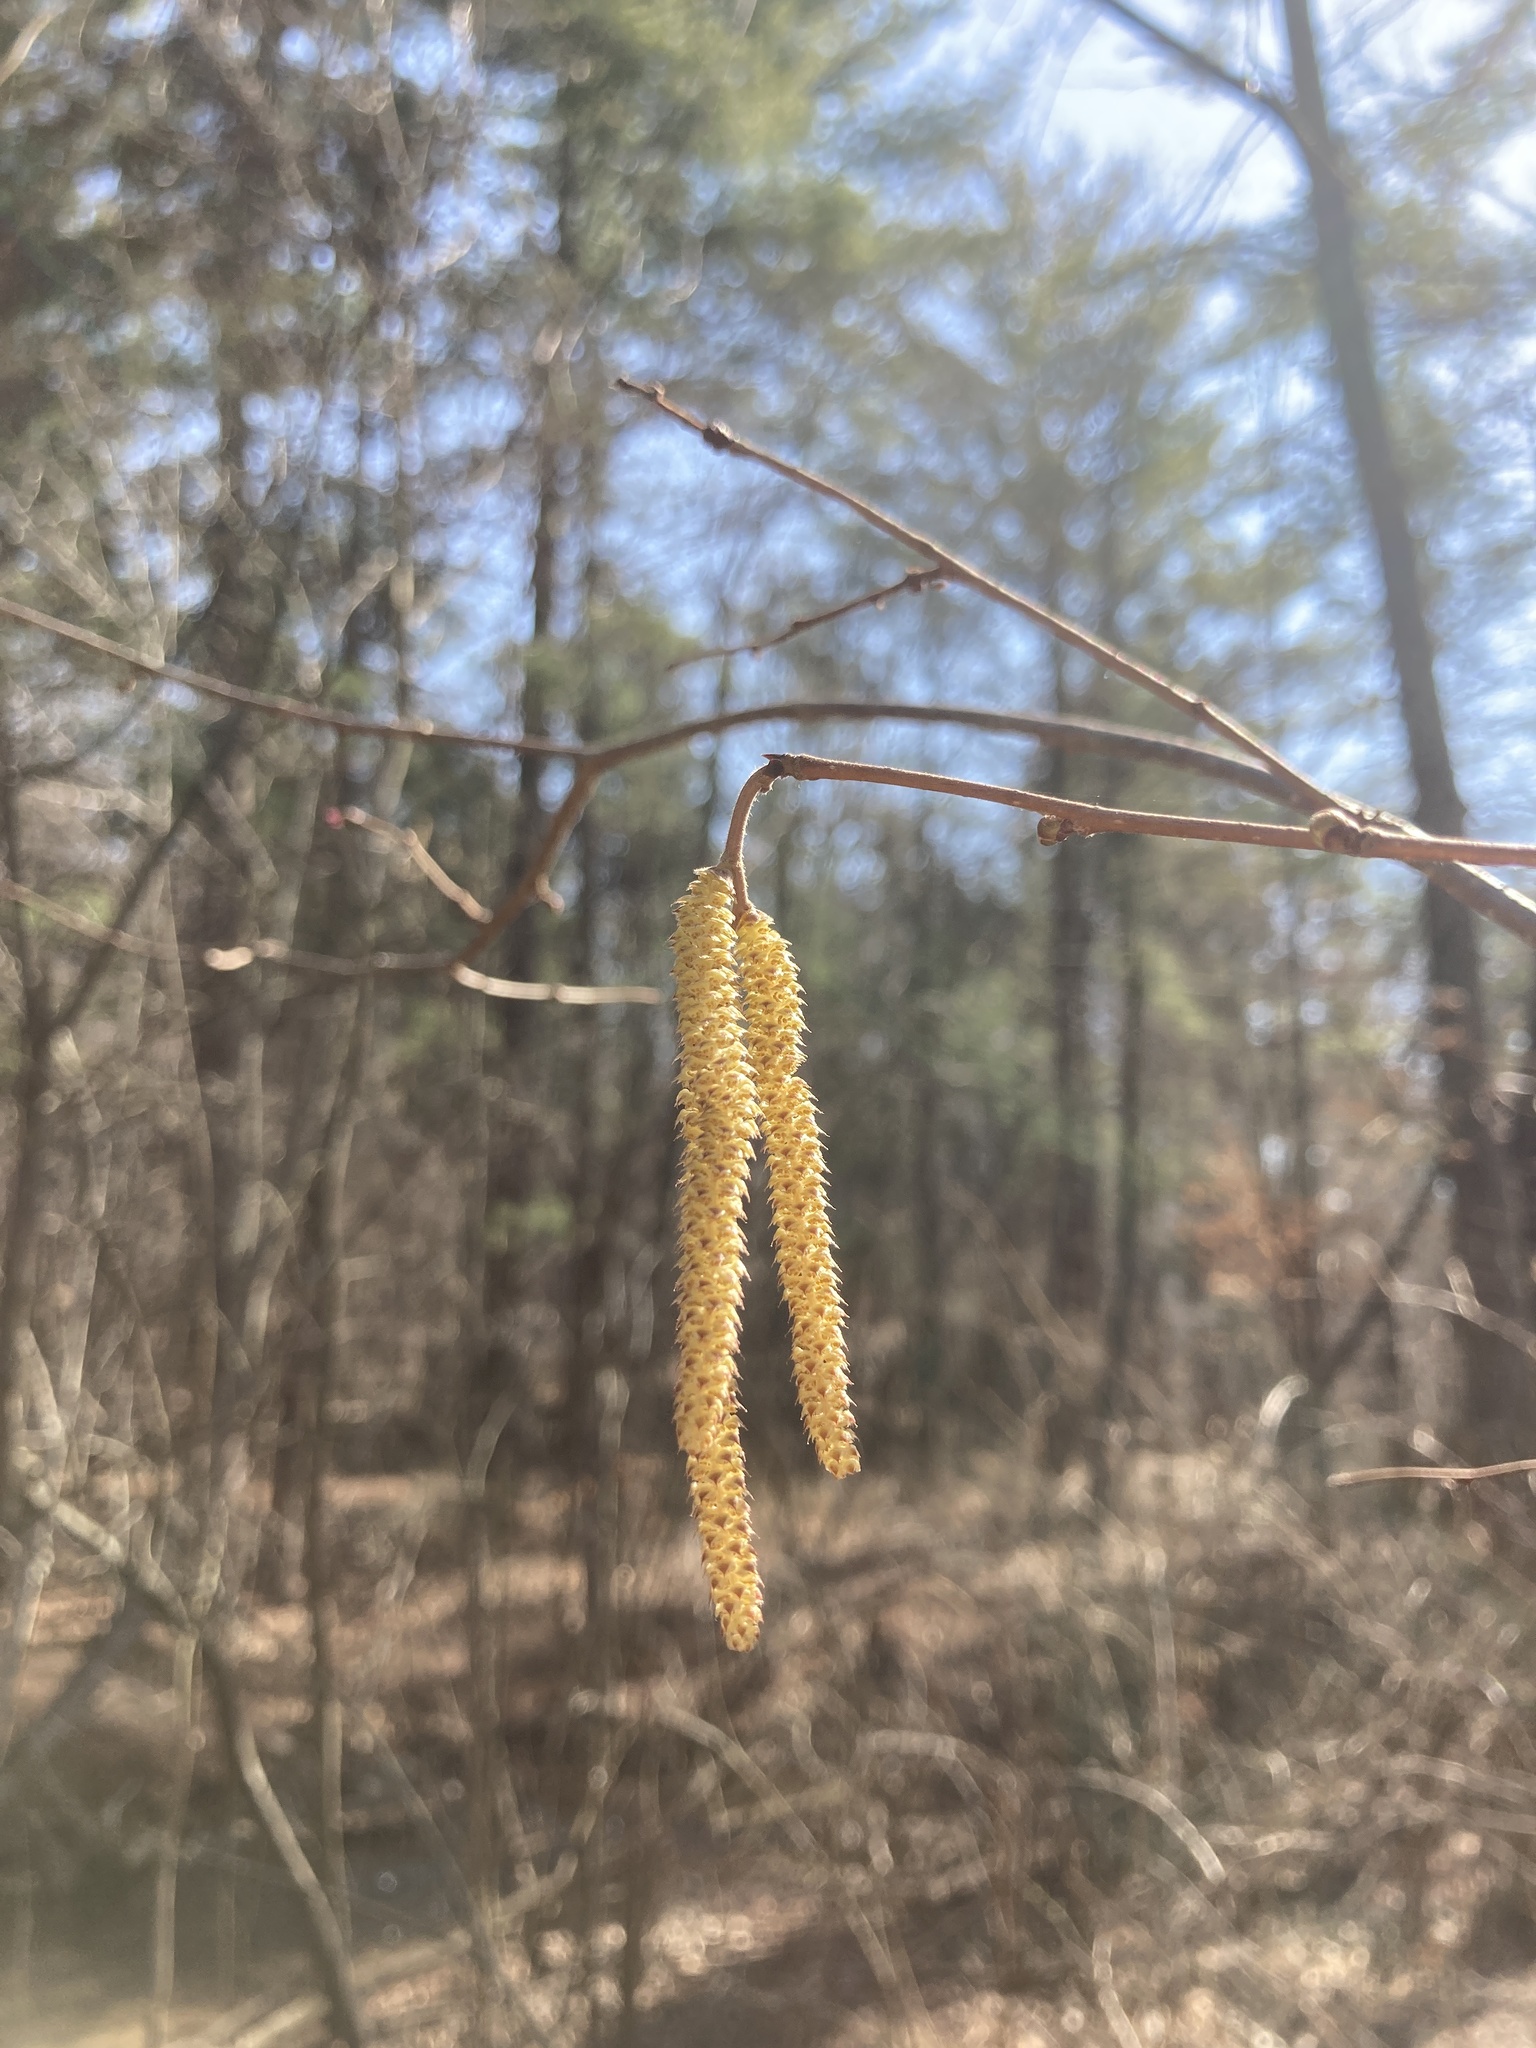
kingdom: Plantae
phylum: Tracheophyta
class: Magnoliopsida
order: Fagales
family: Betulaceae
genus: Corylus
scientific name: Corylus americana
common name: American hazel
